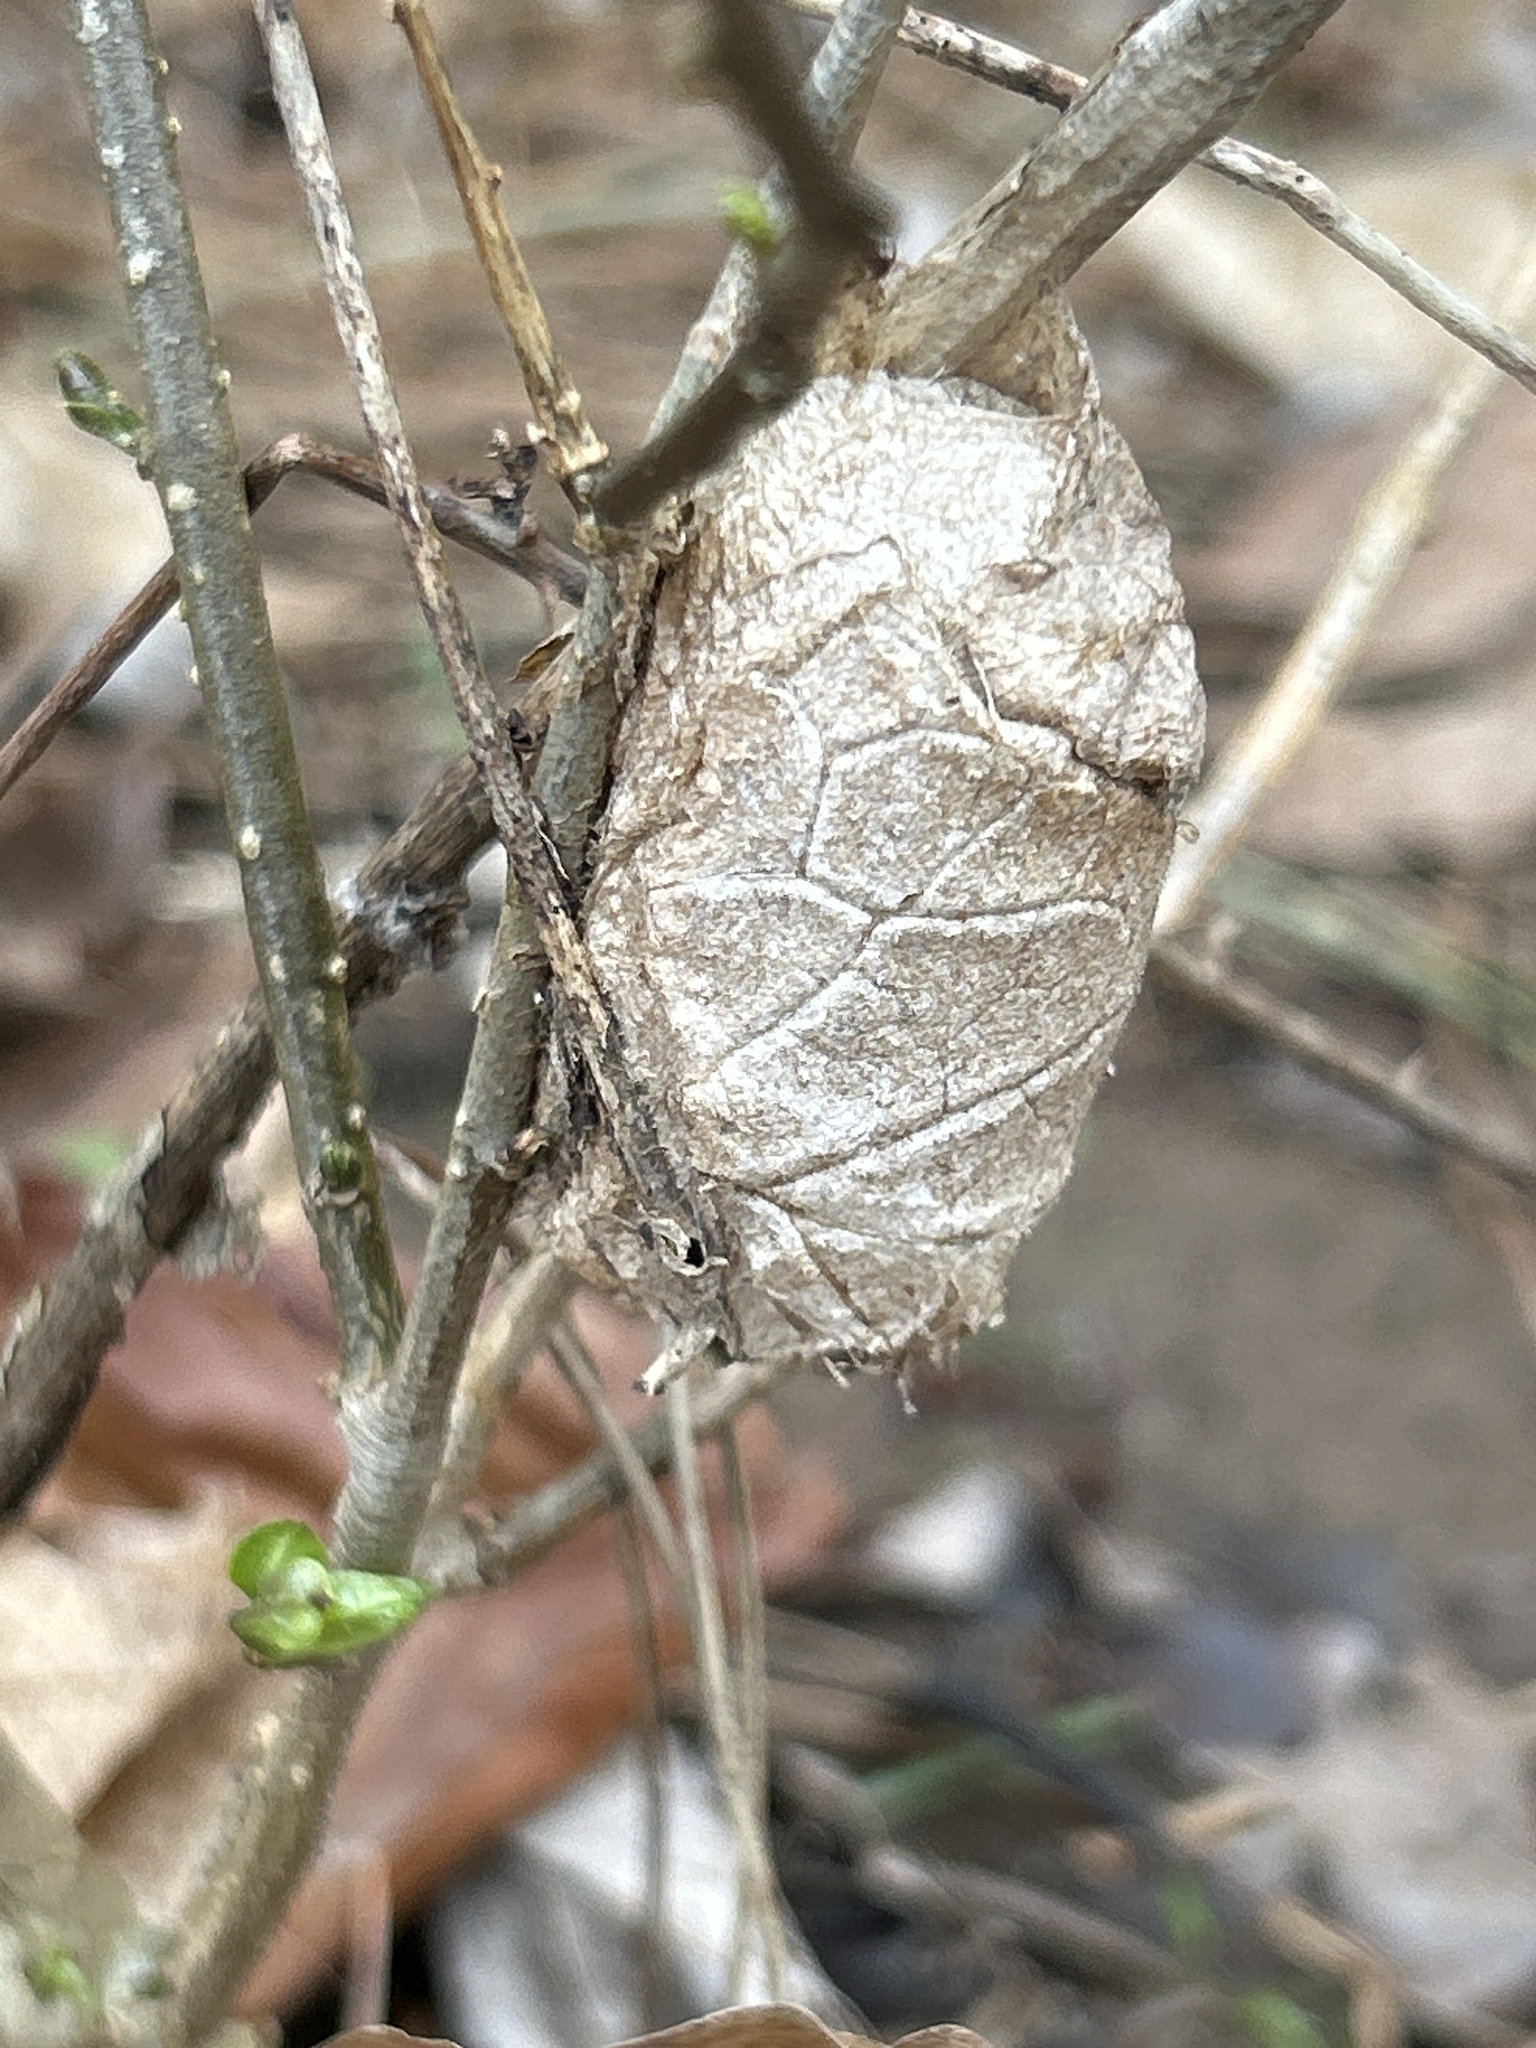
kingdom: Animalia
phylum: Arthropoda
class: Insecta
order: Lepidoptera
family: Saturniidae
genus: Antheraea
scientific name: Antheraea polyphemus
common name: Polyphemus moth
